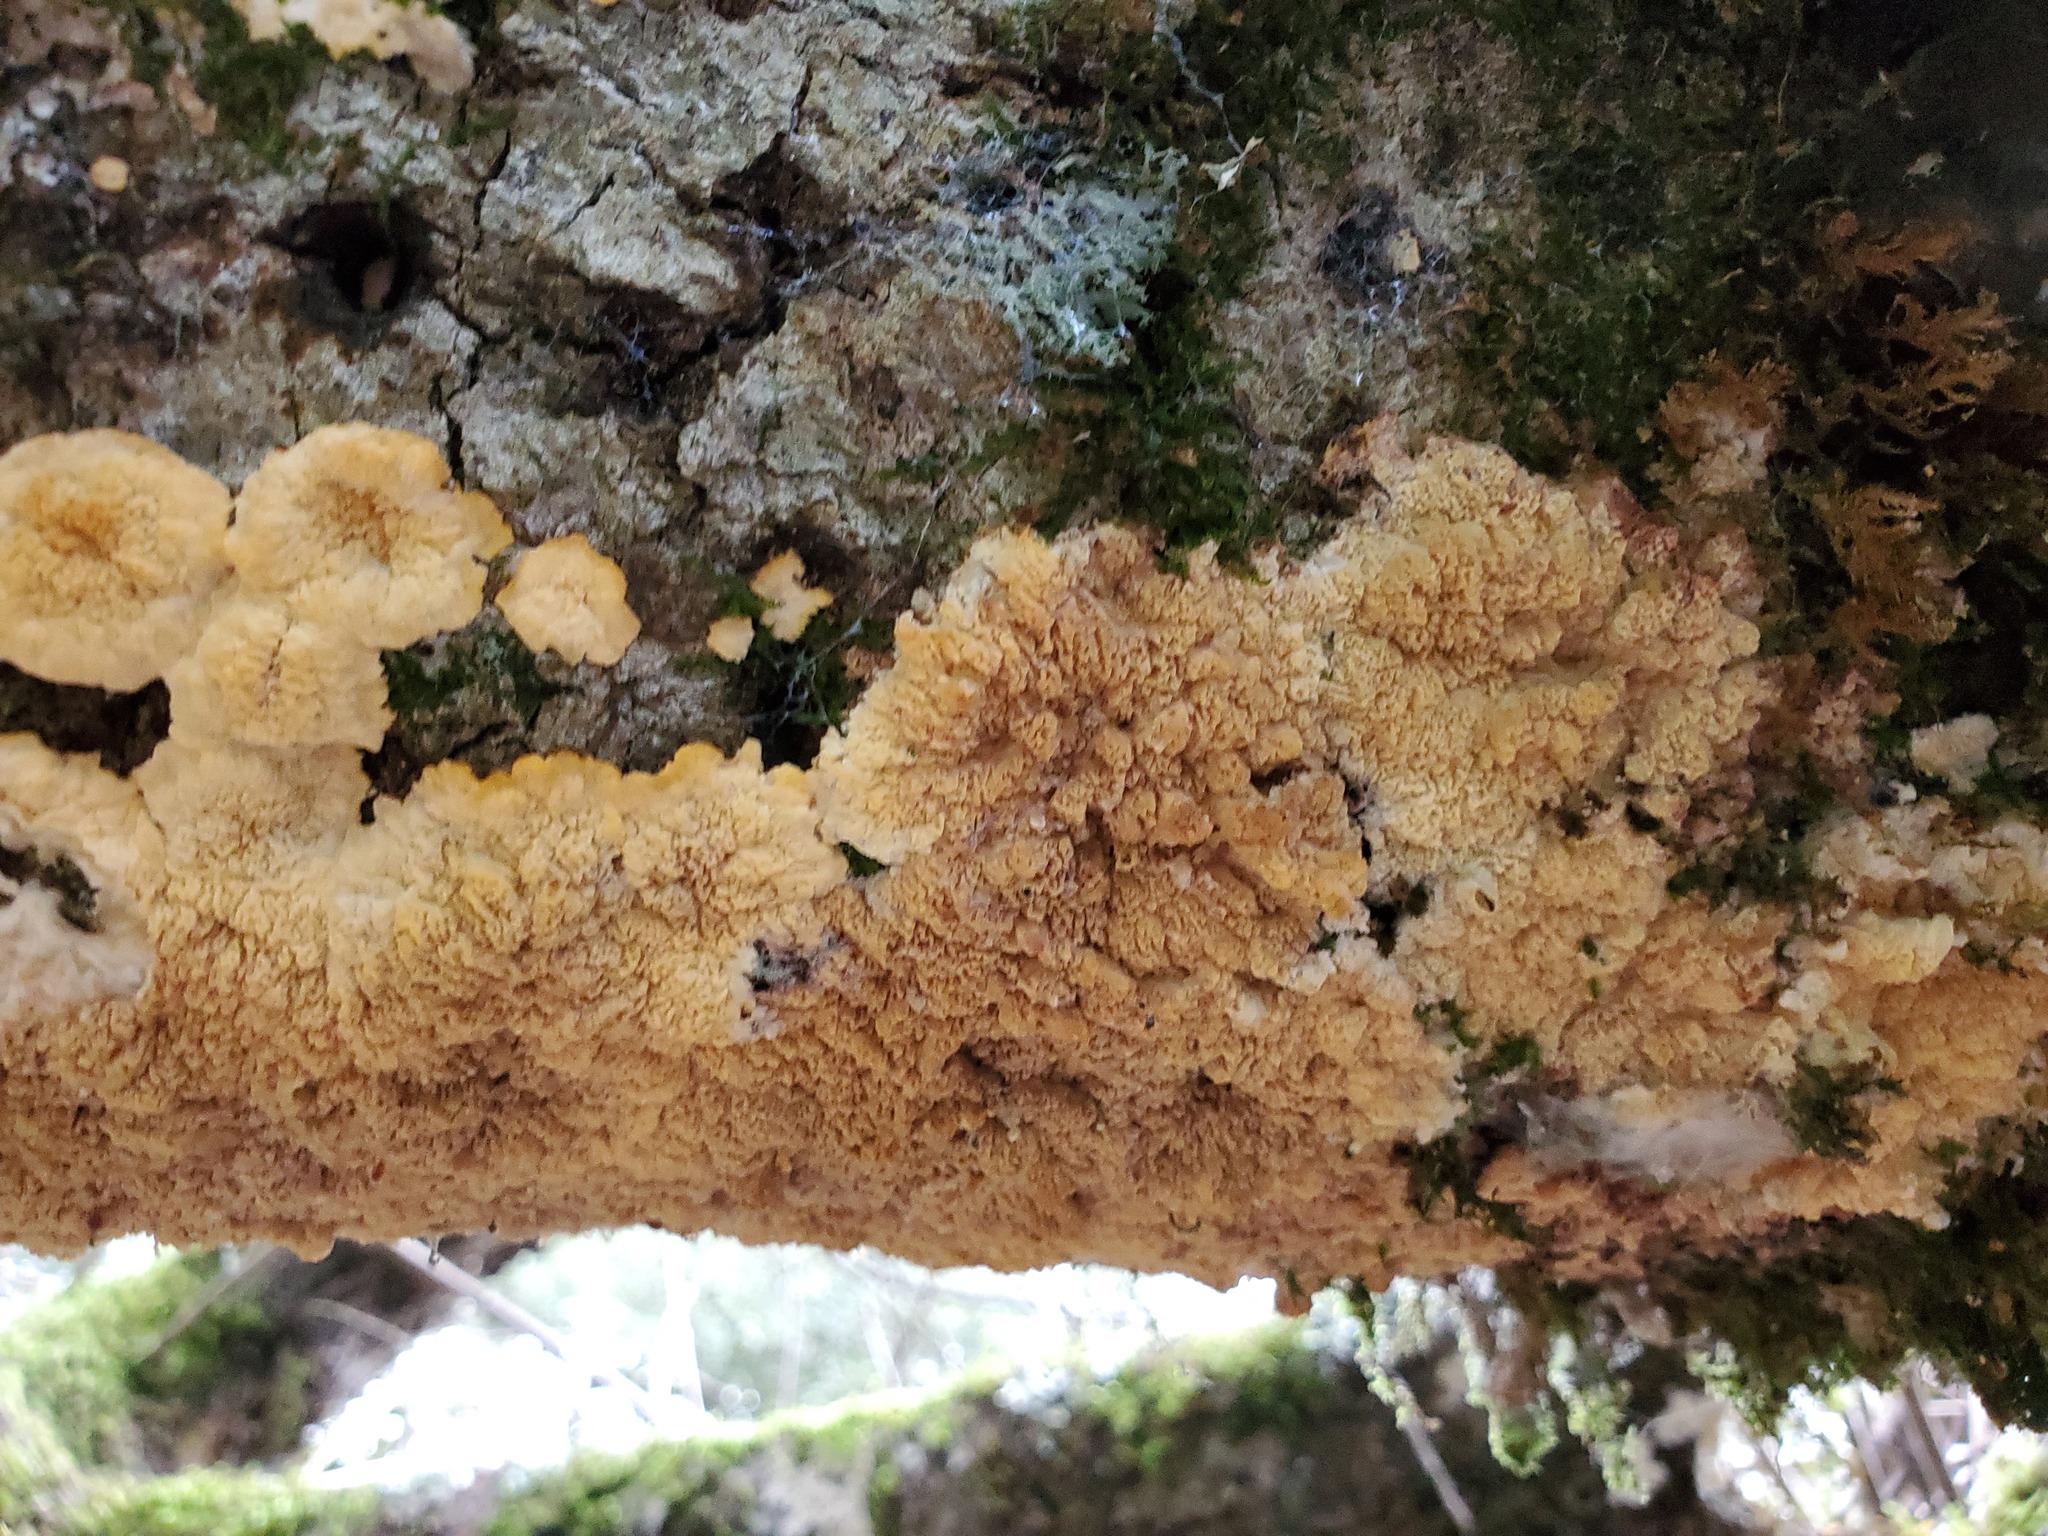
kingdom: Fungi
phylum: Basidiomycota
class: Agaricomycetes
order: Polyporales
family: Meruliaceae
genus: Phlebia
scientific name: Phlebia radiata
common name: Wrinkled crust
